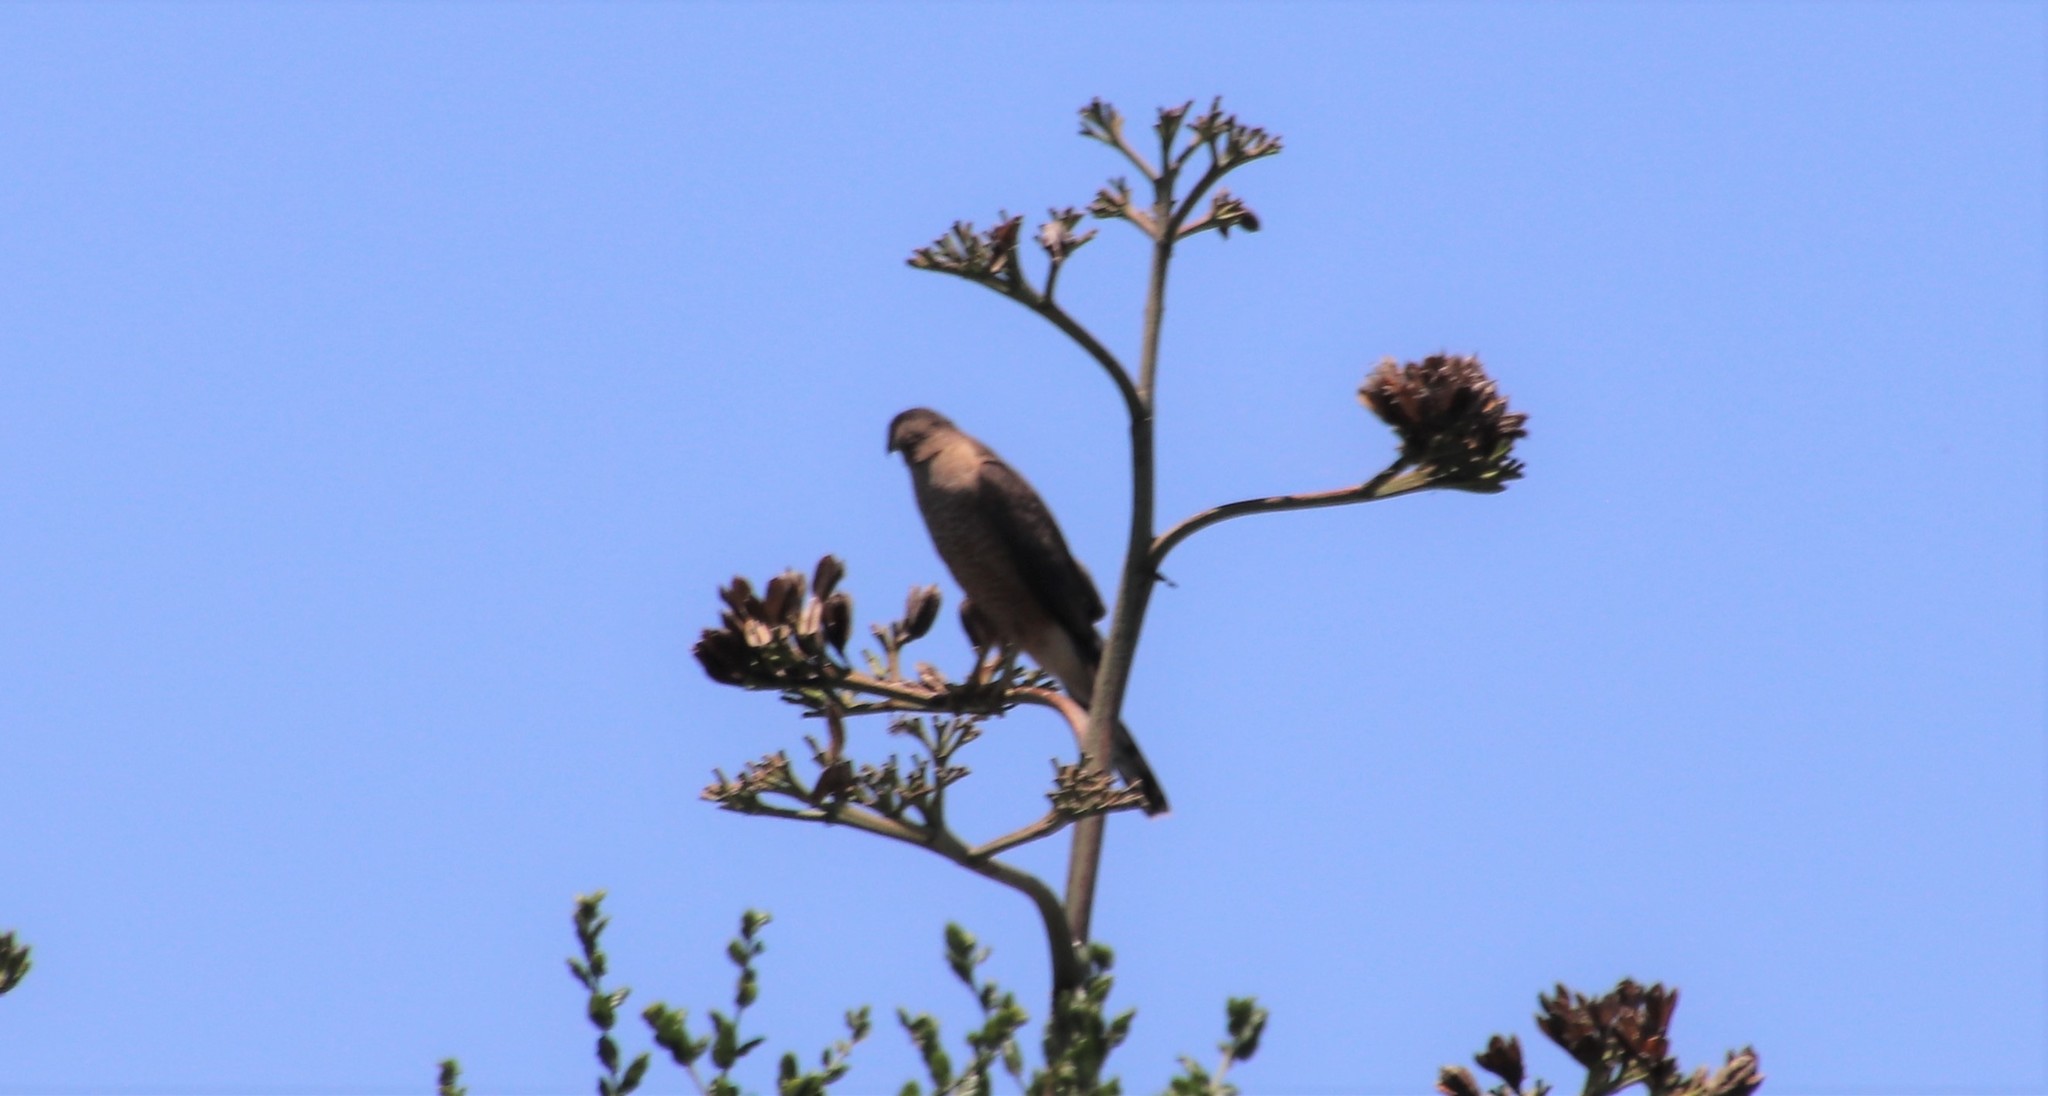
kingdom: Animalia
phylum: Chordata
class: Aves
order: Accipitriformes
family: Accipitridae
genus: Accipiter
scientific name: Accipiter cooperii
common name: Cooper's hawk
